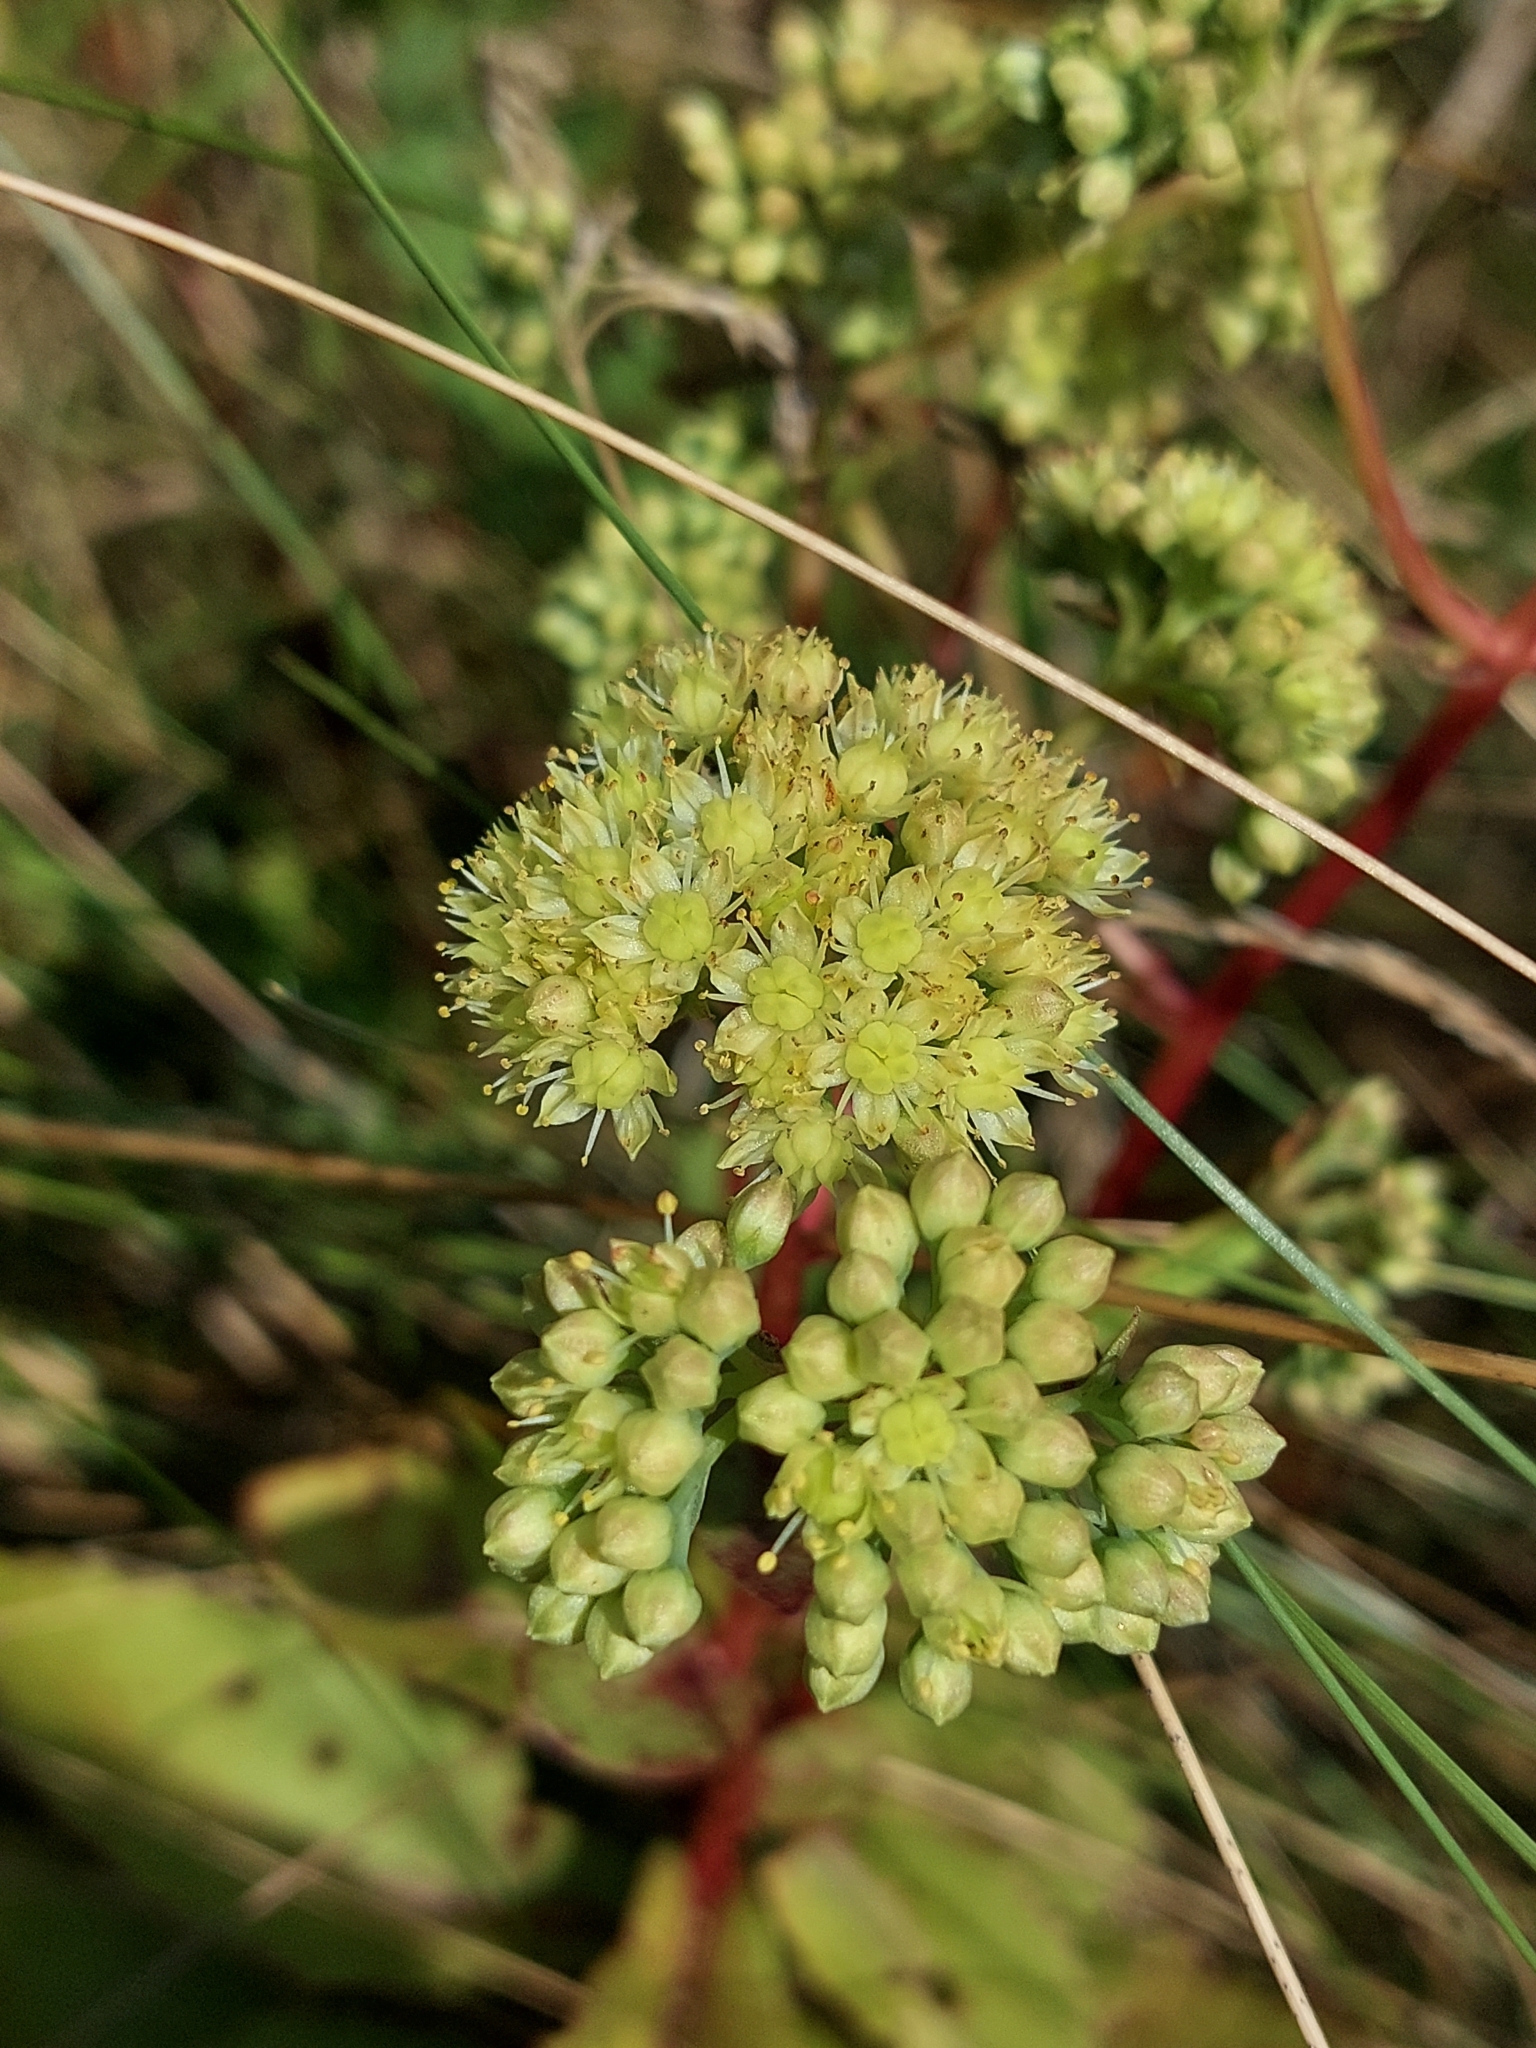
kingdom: Plantae
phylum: Tracheophyta
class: Magnoliopsida
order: Saxifragales
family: Crassulaceae
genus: Hylotelephium
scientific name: Hylotelephium maximum
